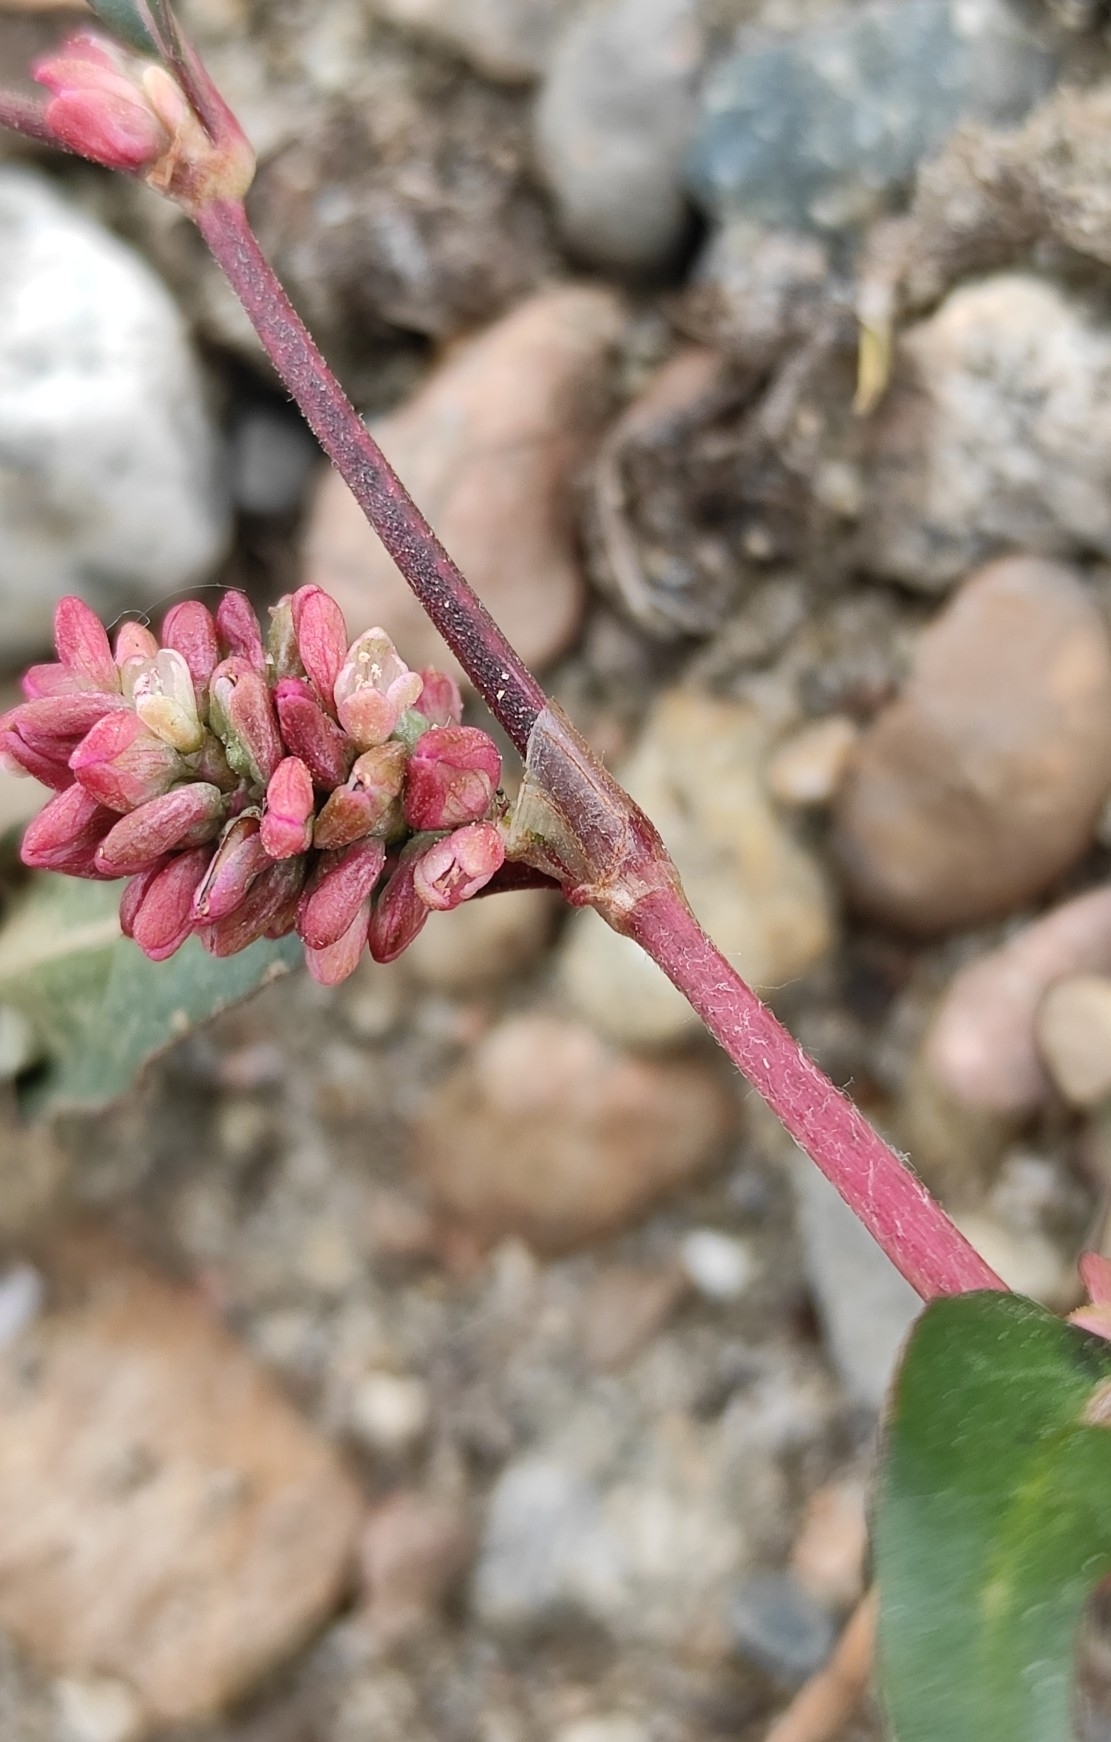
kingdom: Plantae
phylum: Tracheophyta
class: Magnoliopsida
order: Caryophyllales
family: Polygonaceae
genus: Persicaria
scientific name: Persicaria lapathifolia
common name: Curlytop knotweed
